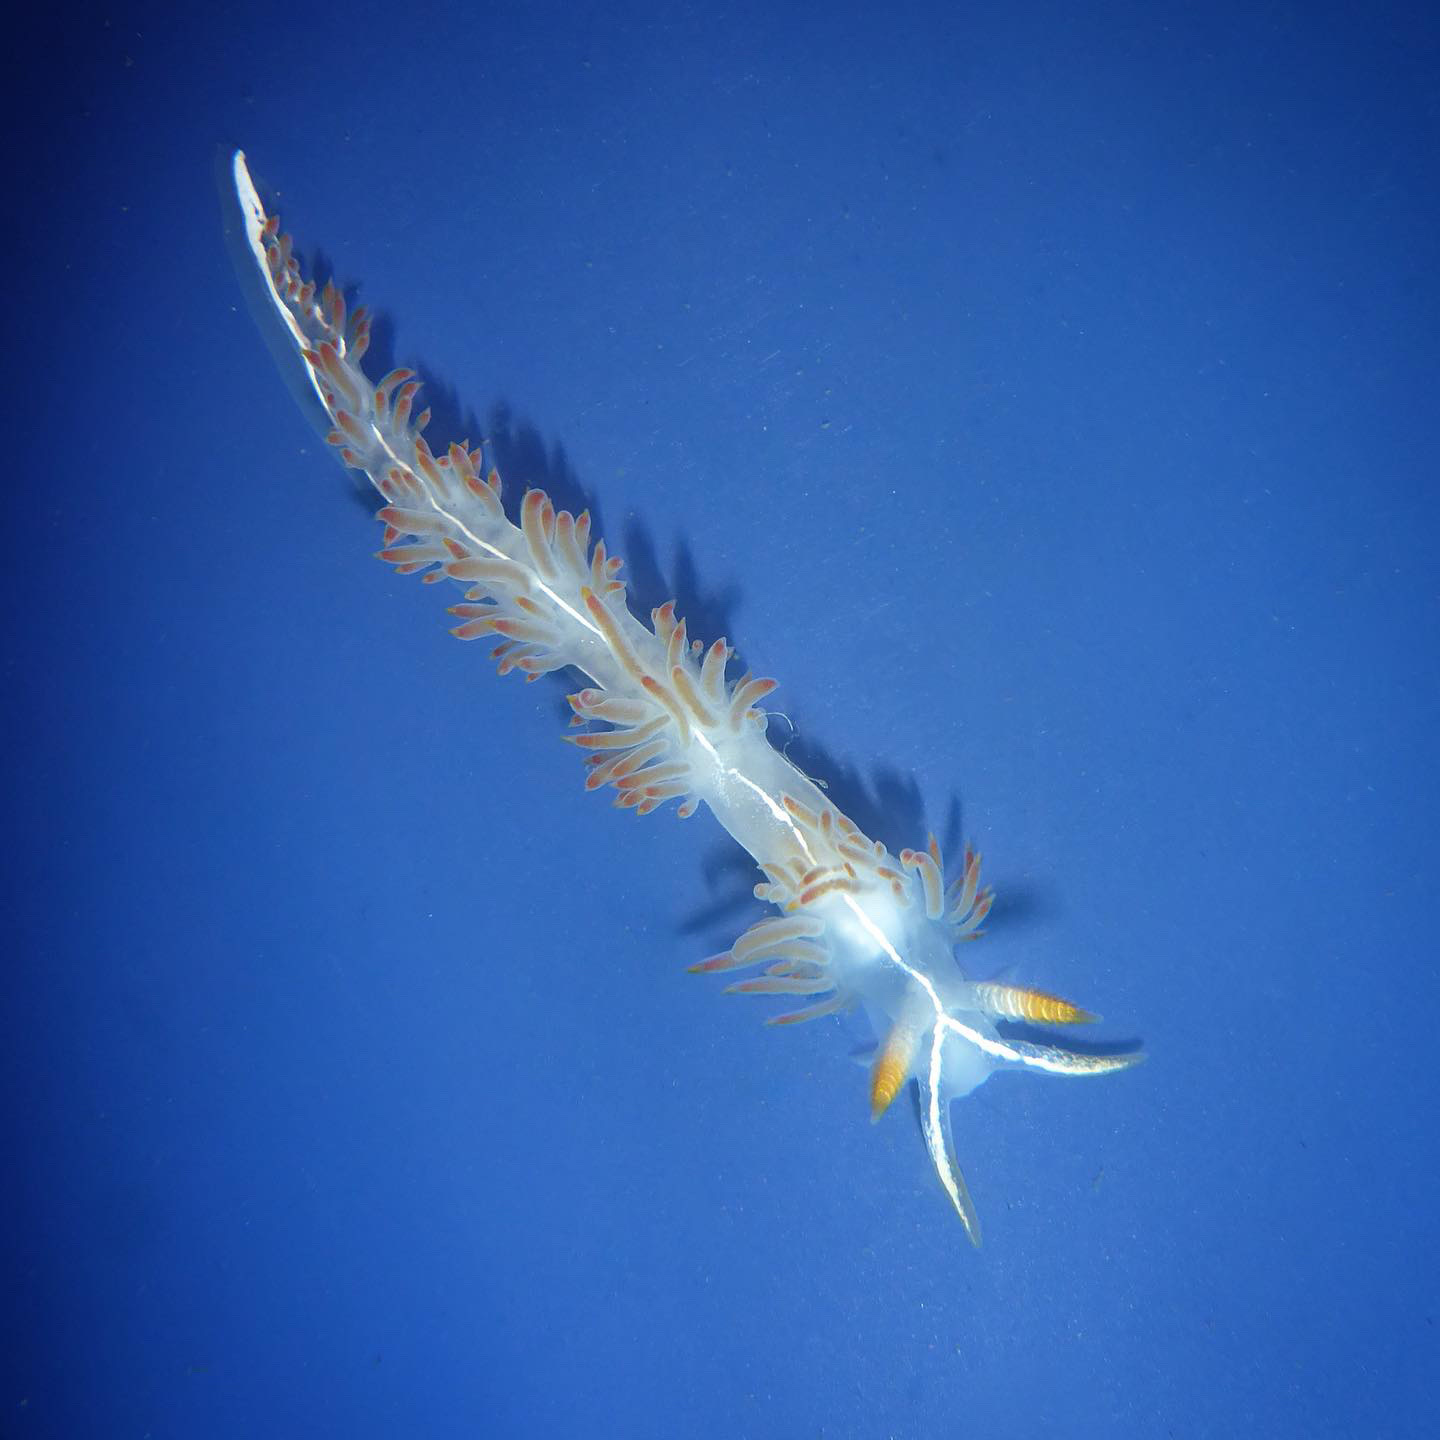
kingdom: Animalia
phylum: Mollusca
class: Gastropoda
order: Nudibranchia
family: Coryphellidae
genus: Coryphella
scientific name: Coryphella trilineata
